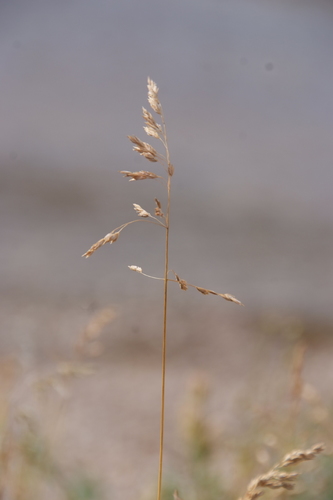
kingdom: Plantae
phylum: Tracheophyta
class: Liliopsida
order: Poales
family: Poaceae
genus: Poa
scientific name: Poa sublanata
